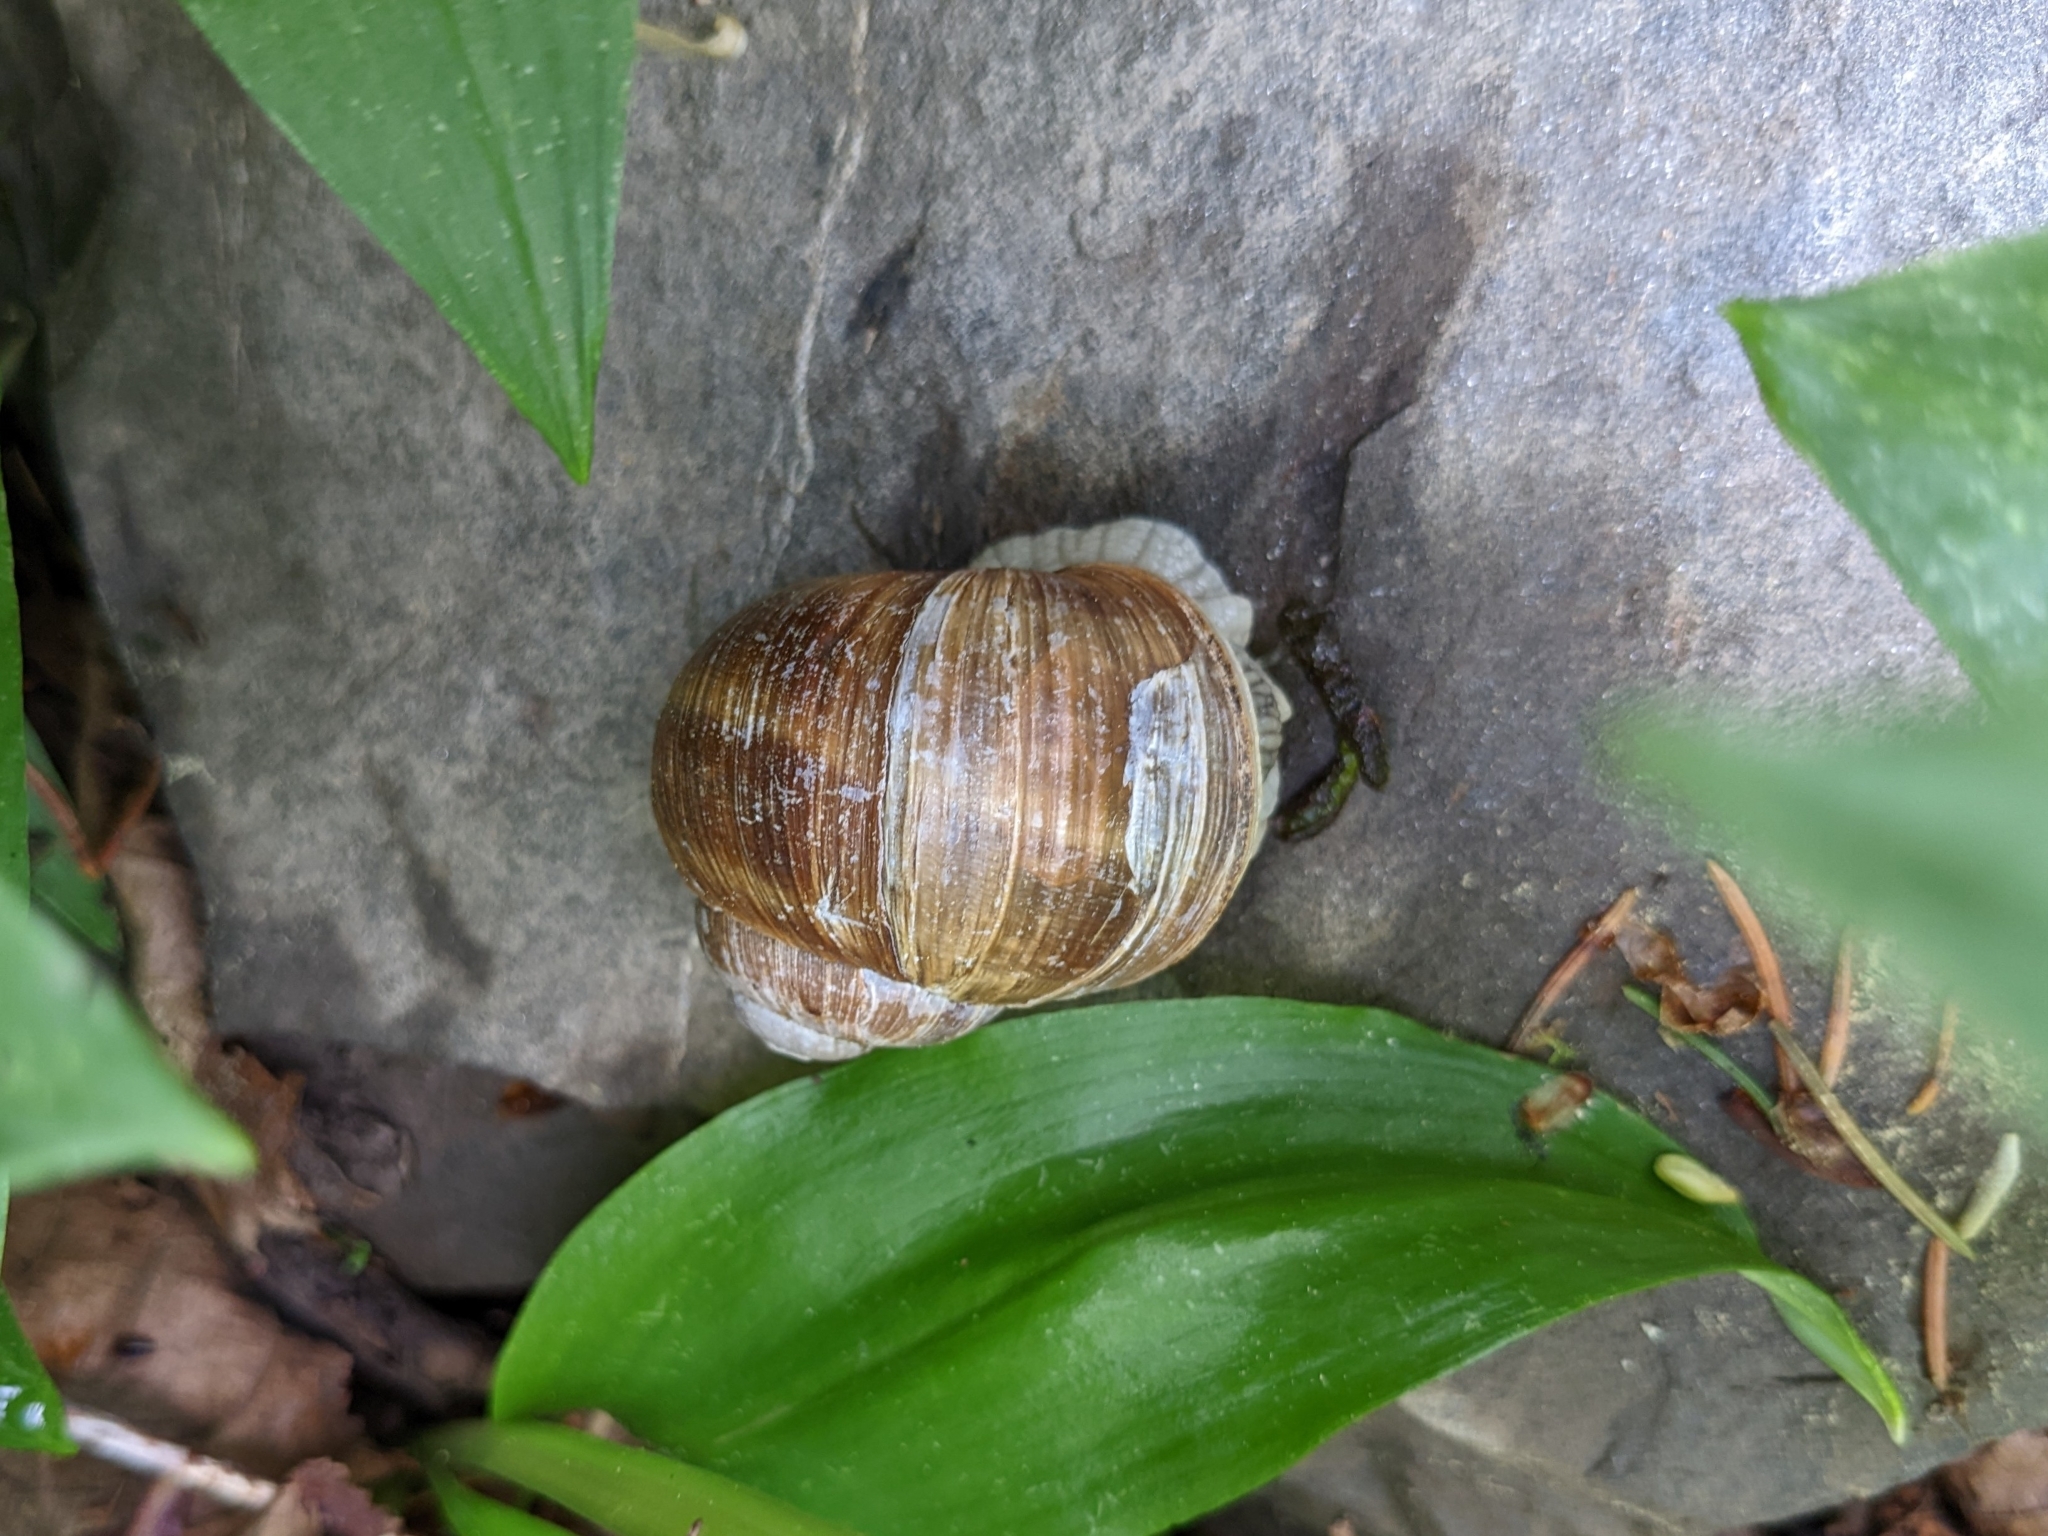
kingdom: Animalia
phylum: Mollusca
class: Gastropoda
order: Stylommatophora
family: Helicidae
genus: Helix
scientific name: Helix pomatia
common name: Roman snail
